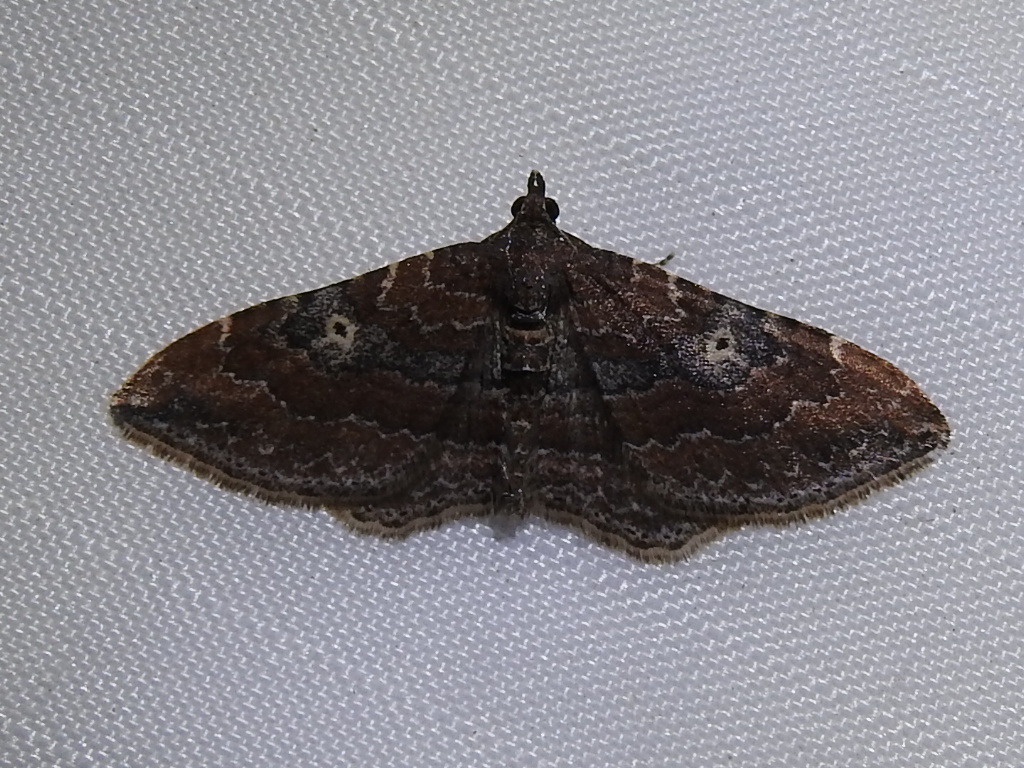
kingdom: Animalia
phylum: Arthropoda
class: Insecta
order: Lepidoptera
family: Geometridae
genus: Orthonama
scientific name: Orthonama obstipata
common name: The gem
